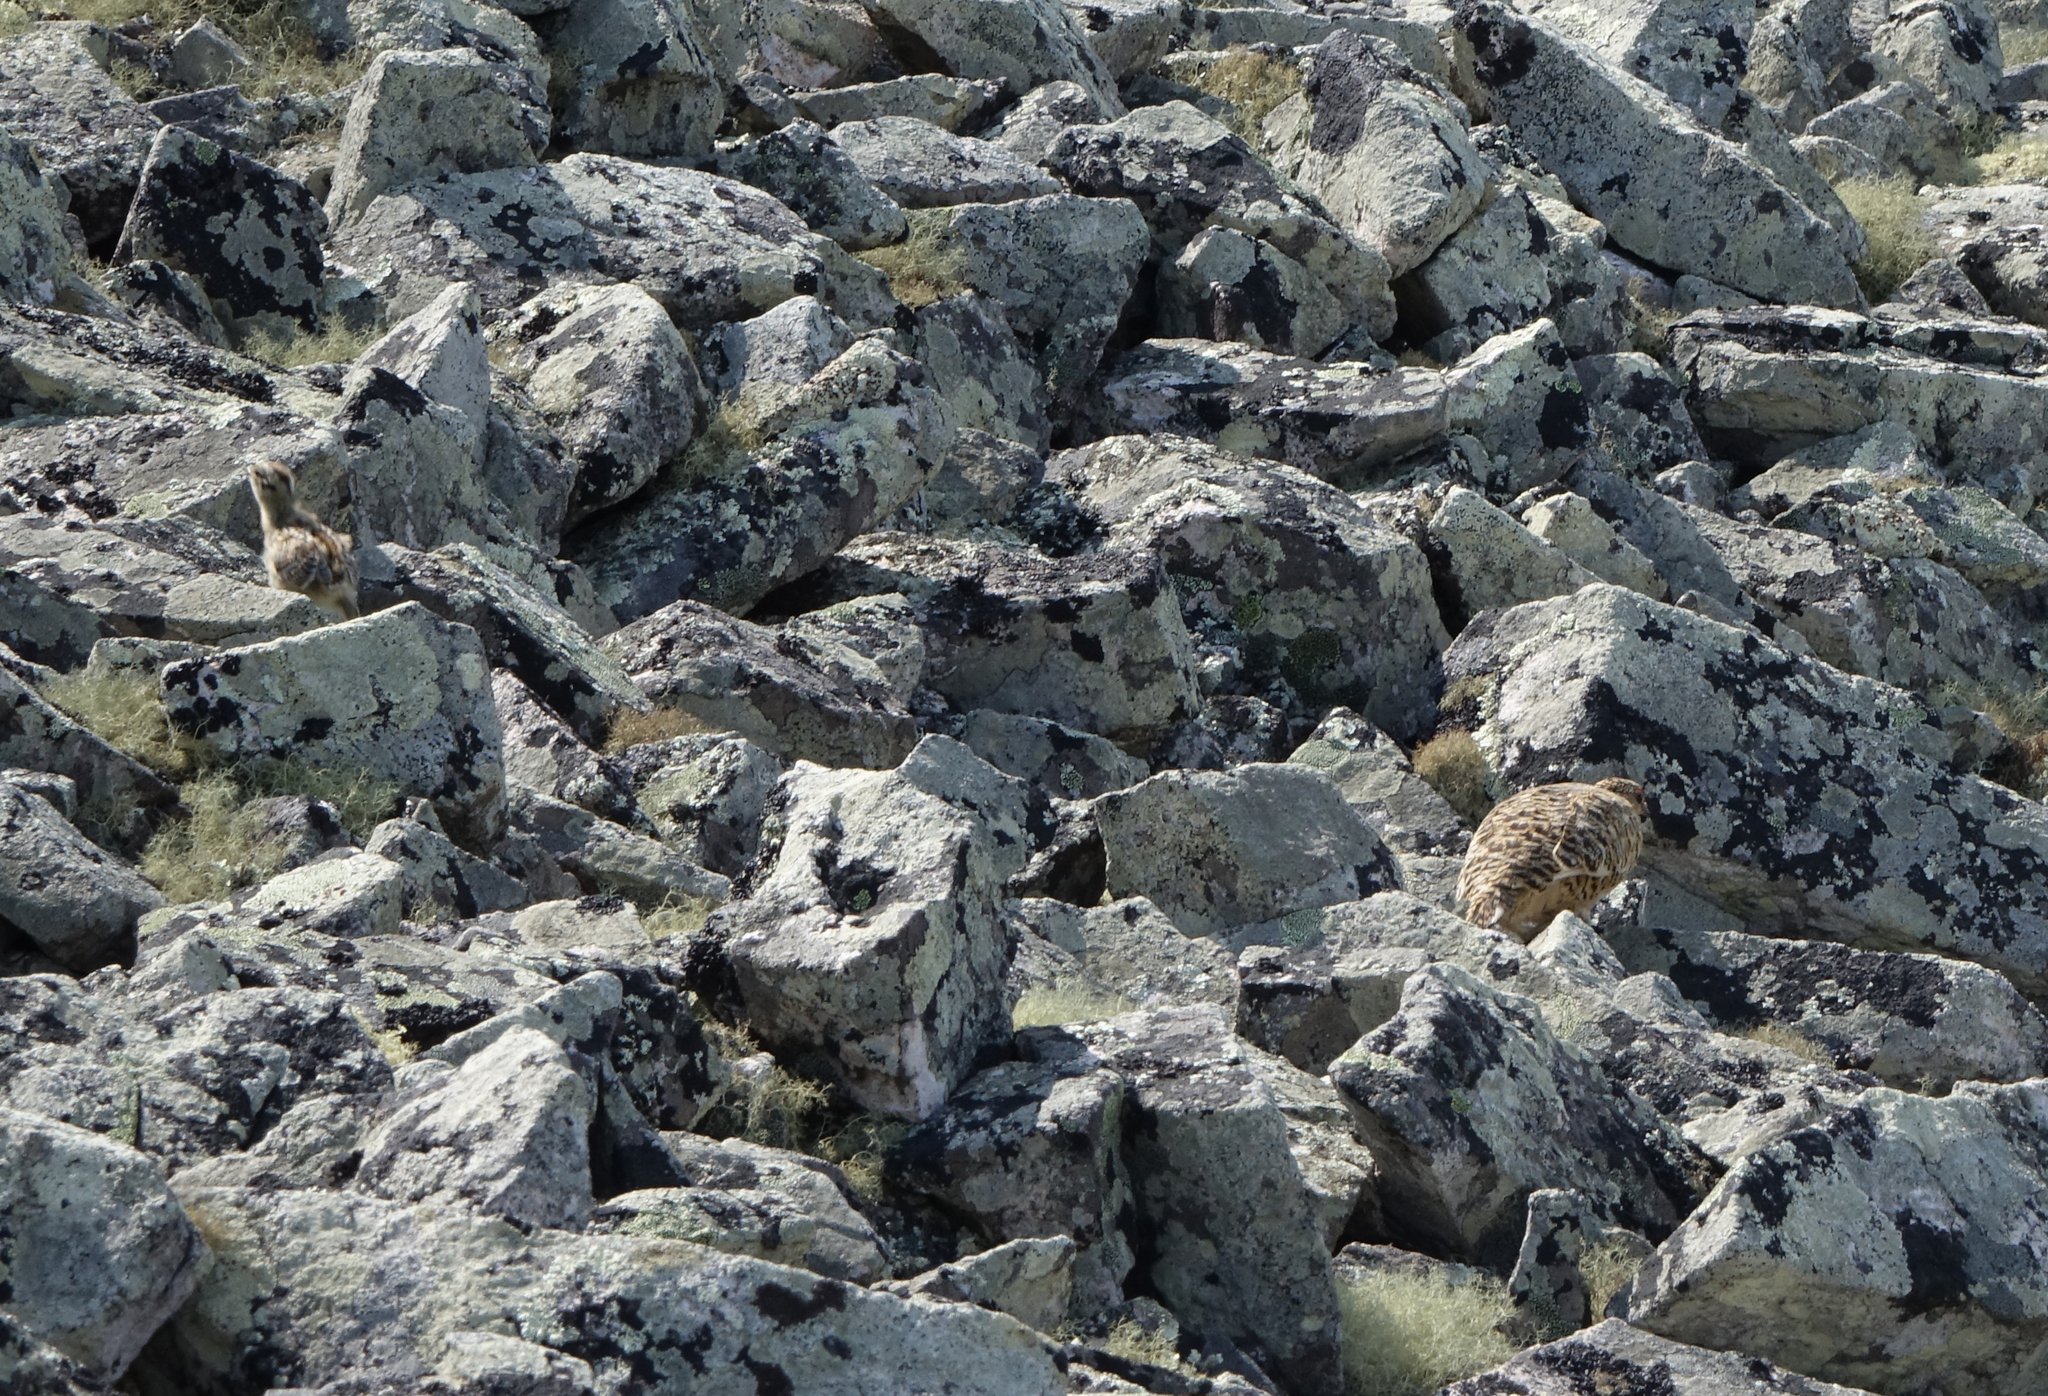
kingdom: Animalia
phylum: Chordata
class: Aves
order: Galliformes
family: Phasianidae
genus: Lagopus
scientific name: Lagopus muta
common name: Rock ptarmigan
